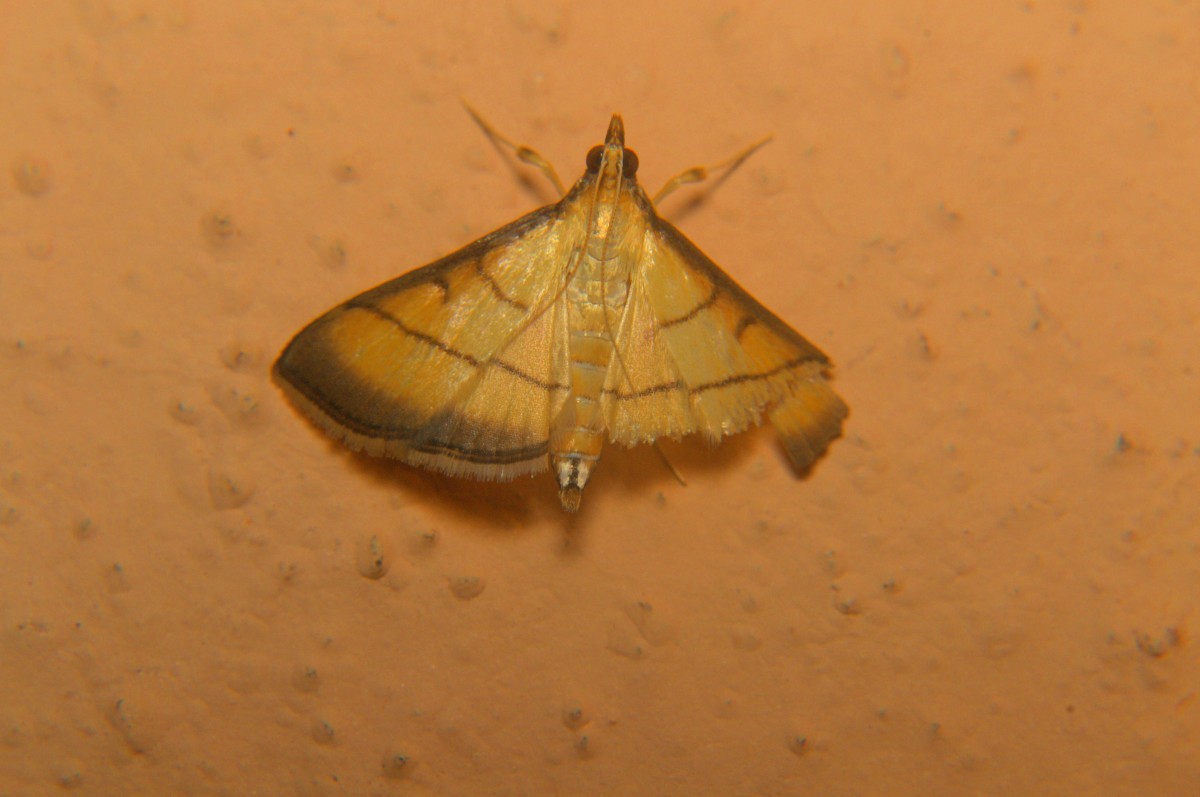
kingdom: Animalia
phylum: Arthropoda
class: Insecta
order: Lepidoptera
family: Crambidae
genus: Cnaphalocrocis
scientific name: Cnaphalocrocis medinalis
